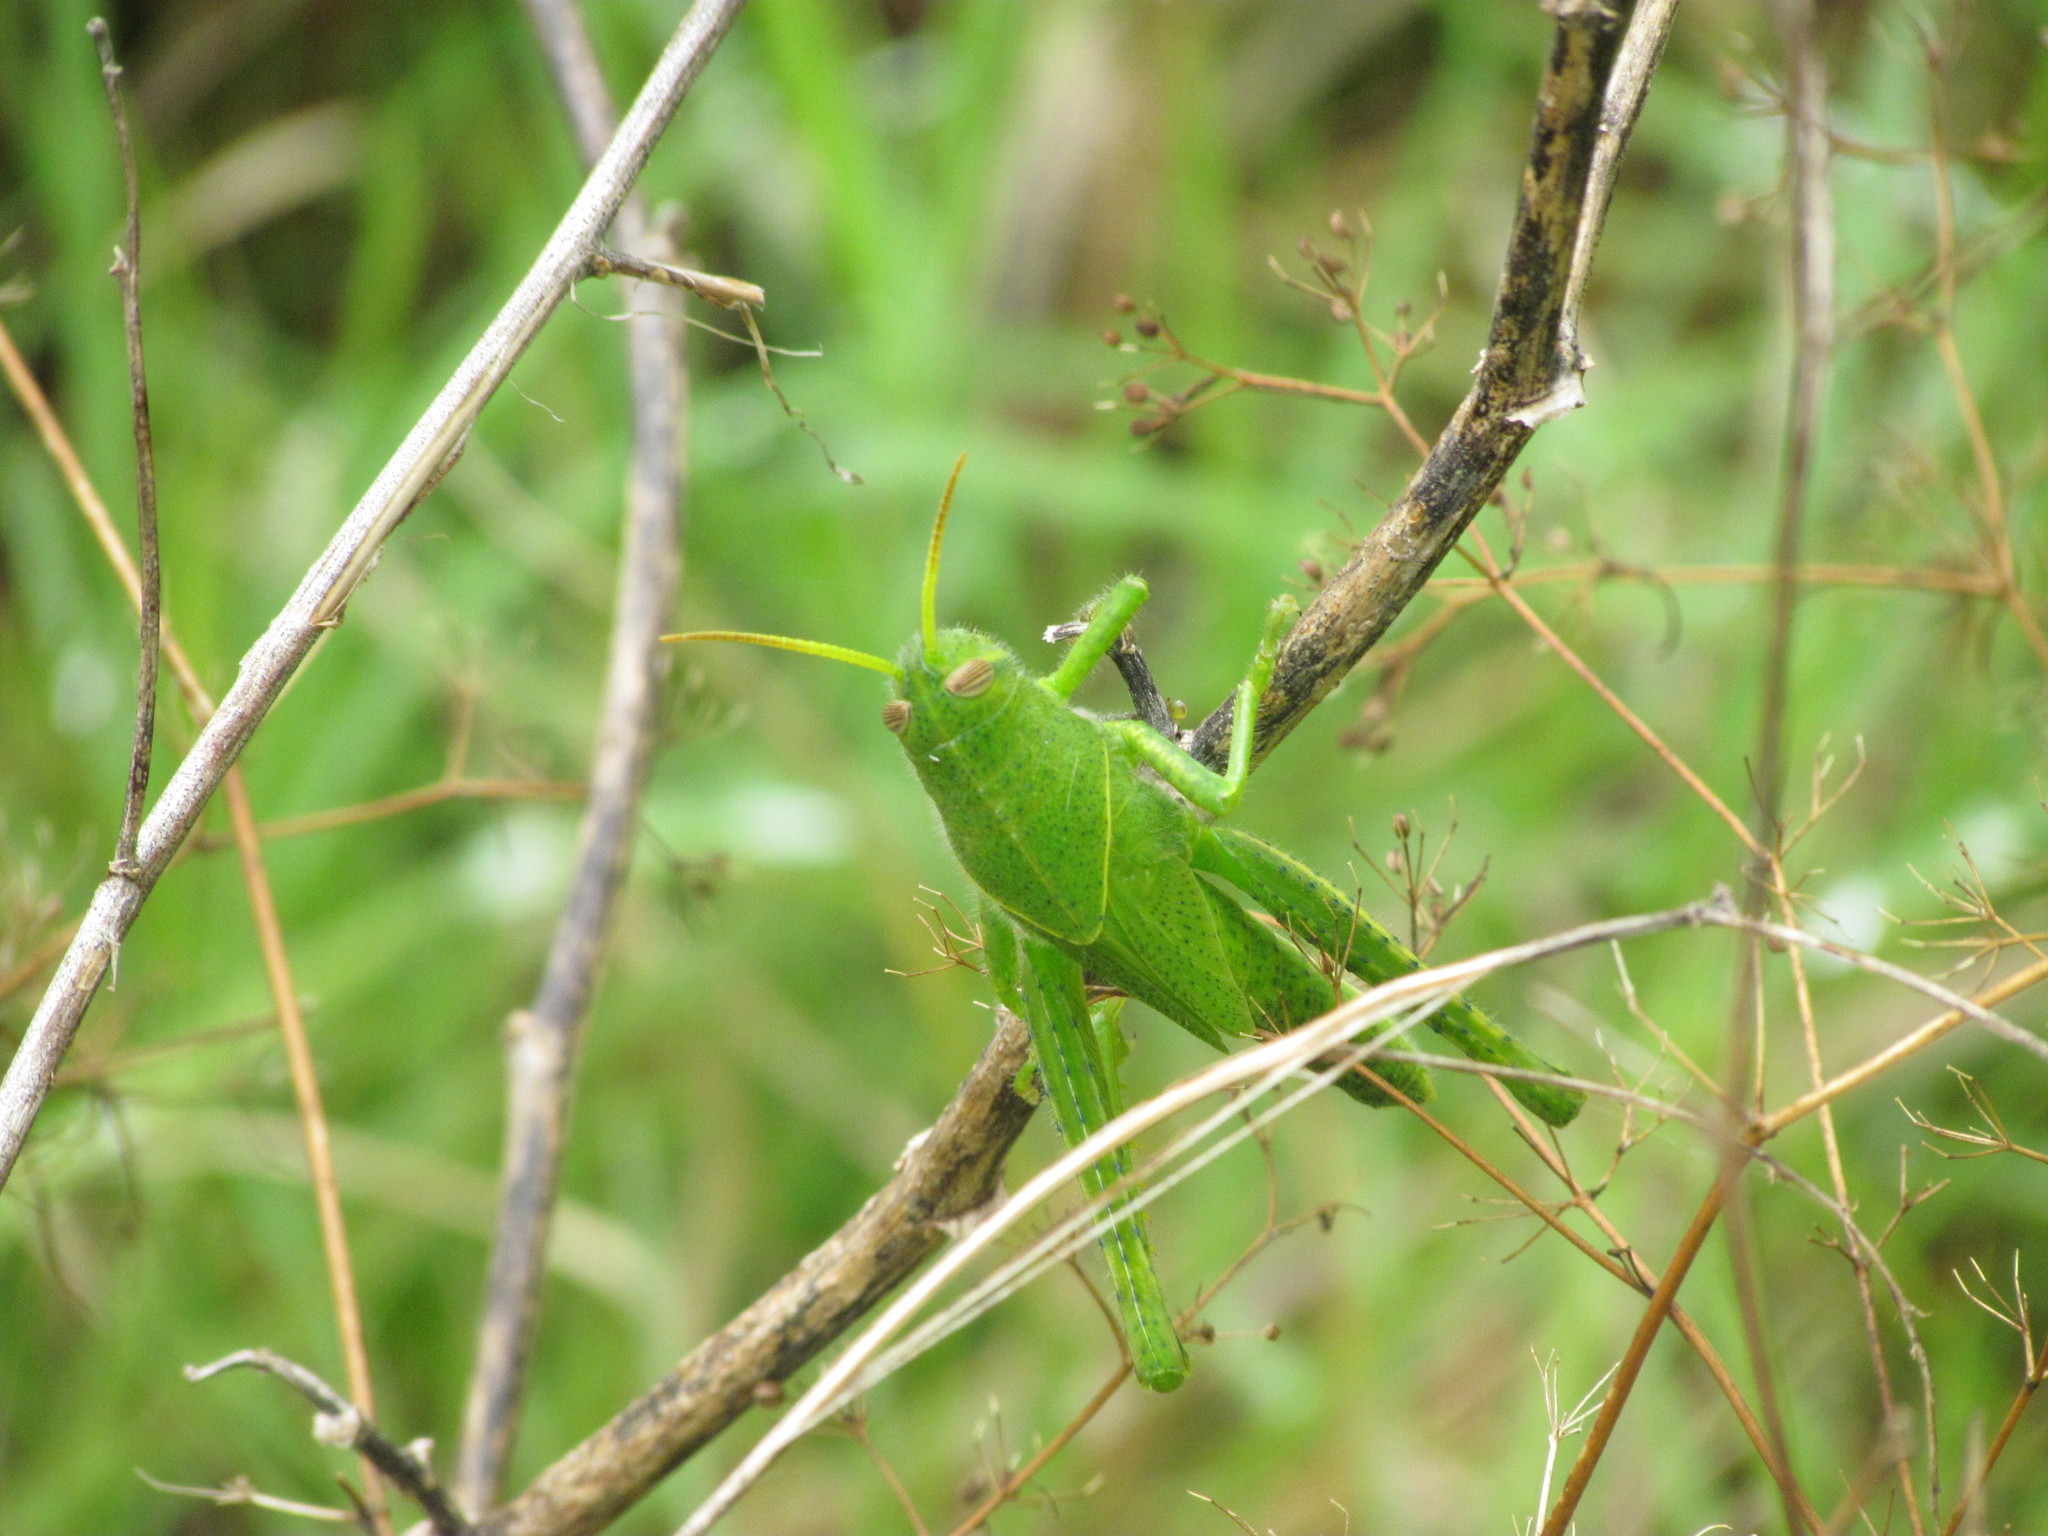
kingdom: Animalia
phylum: Arthropoda
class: Insecta
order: Orthoptera
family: Acrididae
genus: Schistocerca
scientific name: Schistocerca flavofasciata
